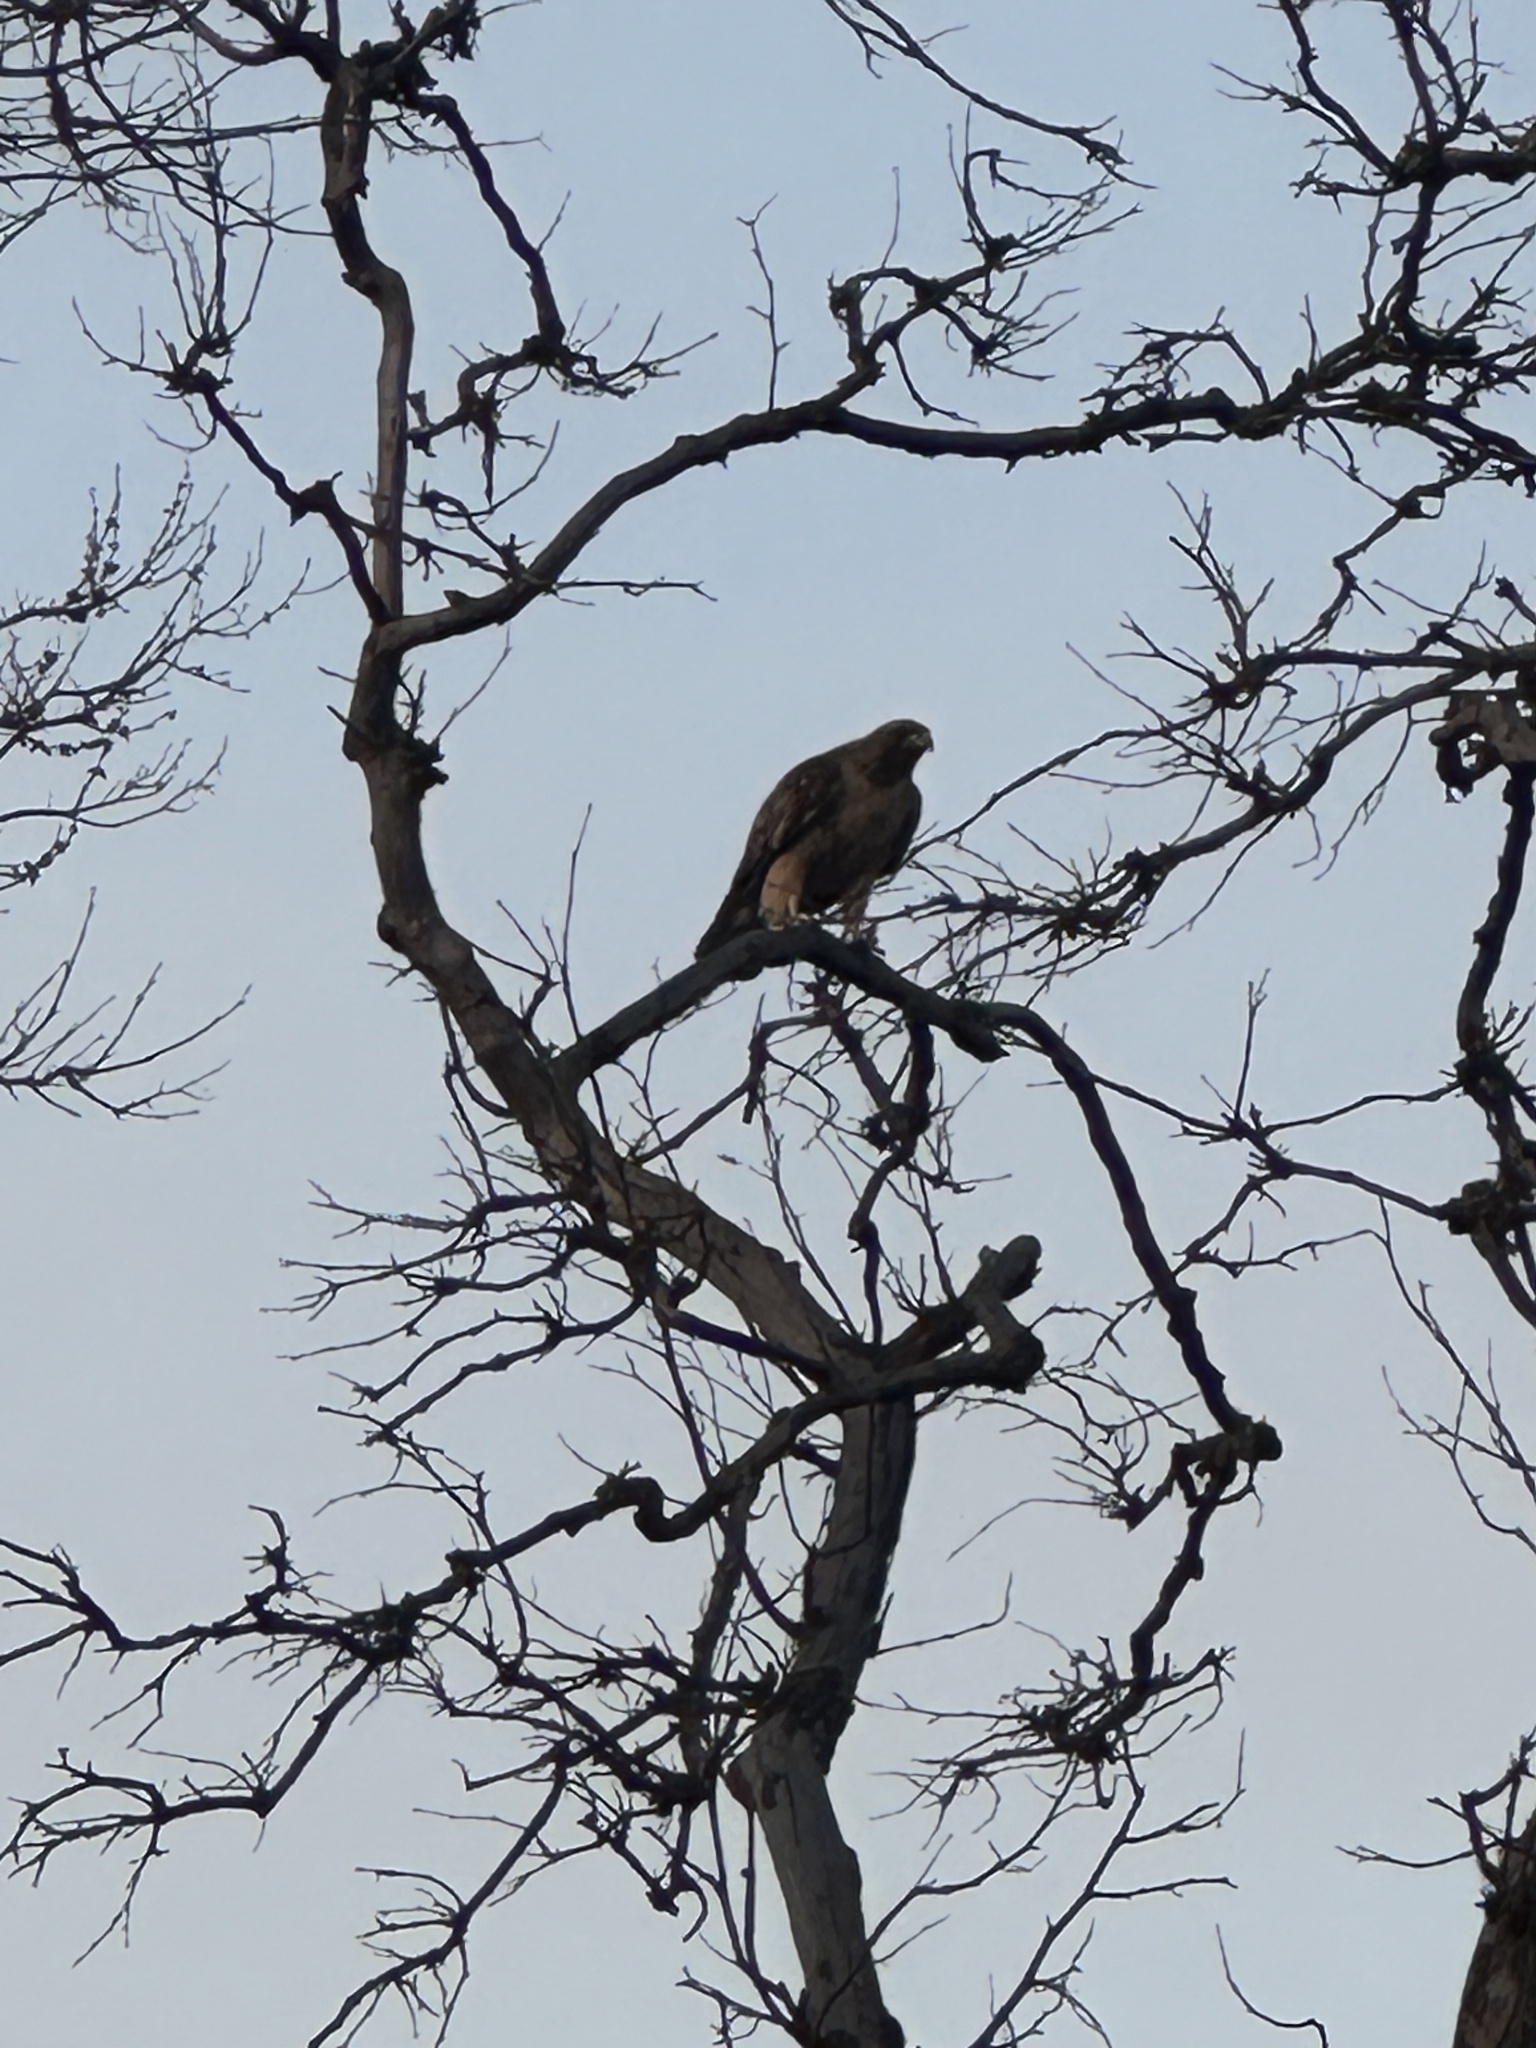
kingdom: Animalia
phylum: Chordata
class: Aves
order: Accipitriformes
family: Accipitridae
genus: Buteo
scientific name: Buteo jamaicensis
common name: Red-tailed hawk
